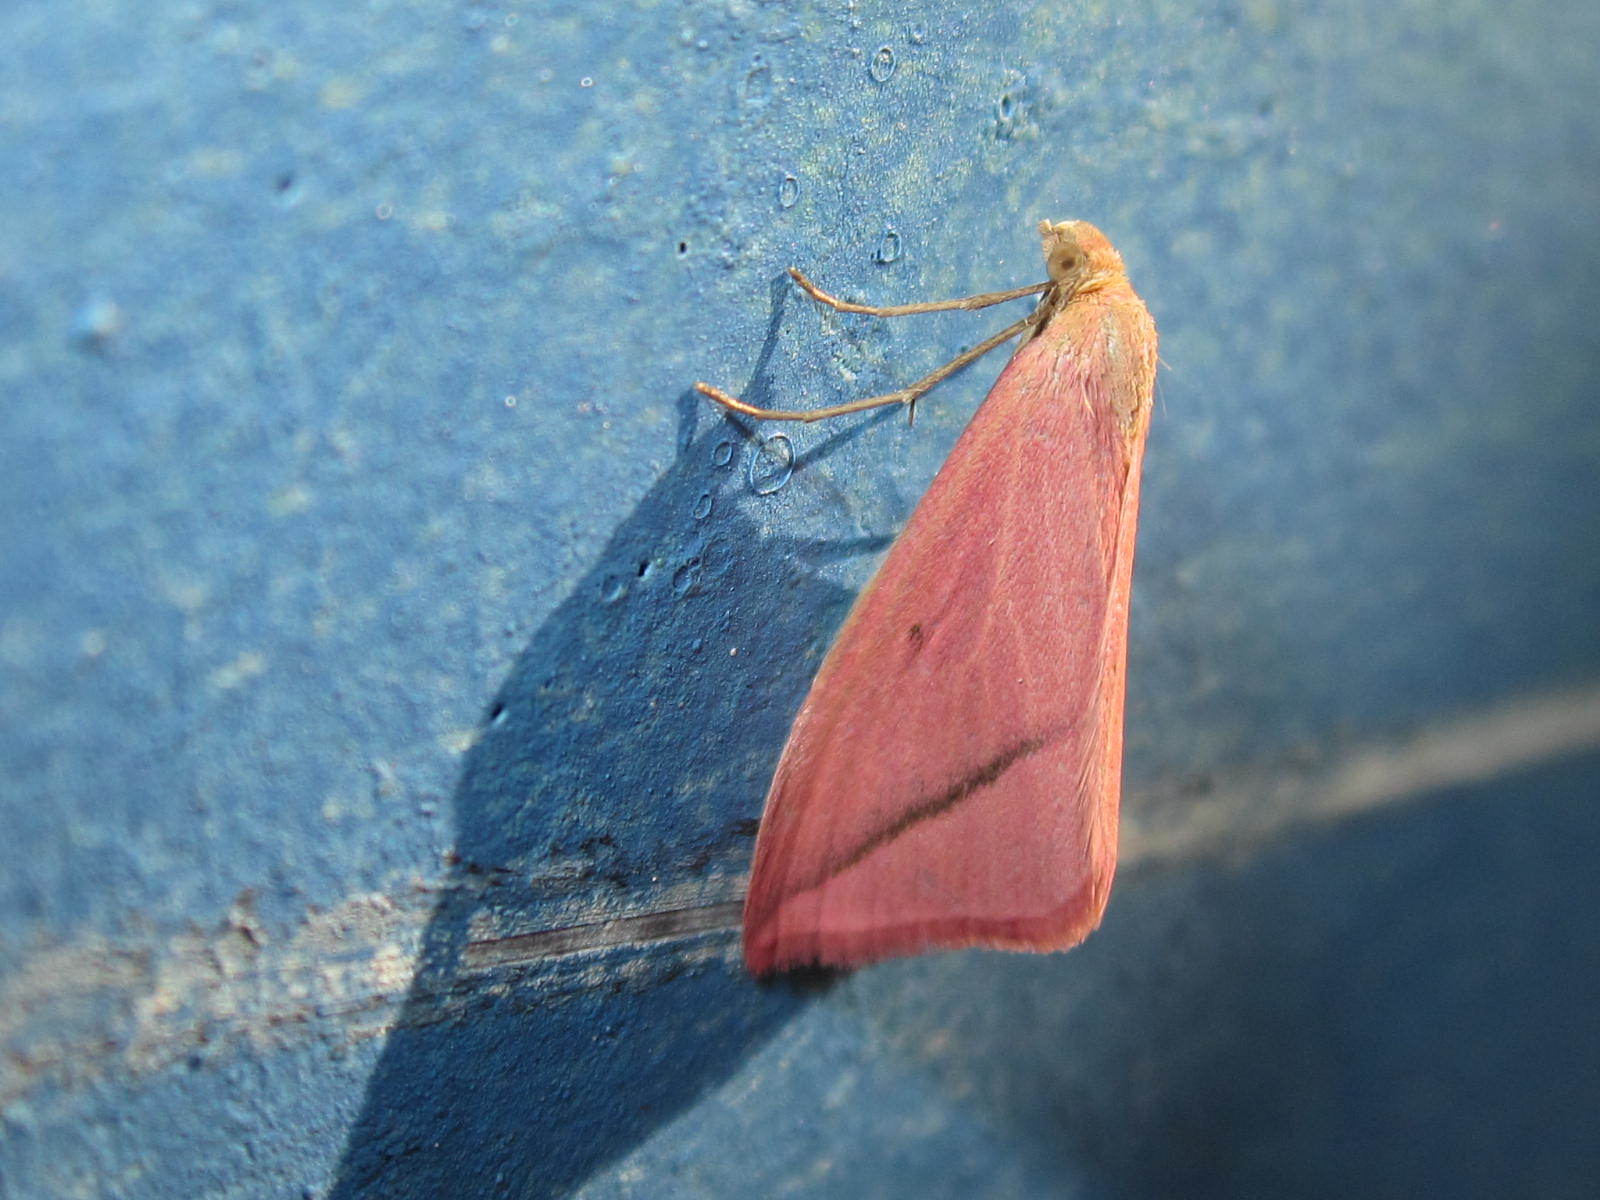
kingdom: Animalia
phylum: Arthropoda
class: Insecta
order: Lepidoptera
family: Geometridae
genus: Rhodometra
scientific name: Rhodometra sacraria
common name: Vestal
